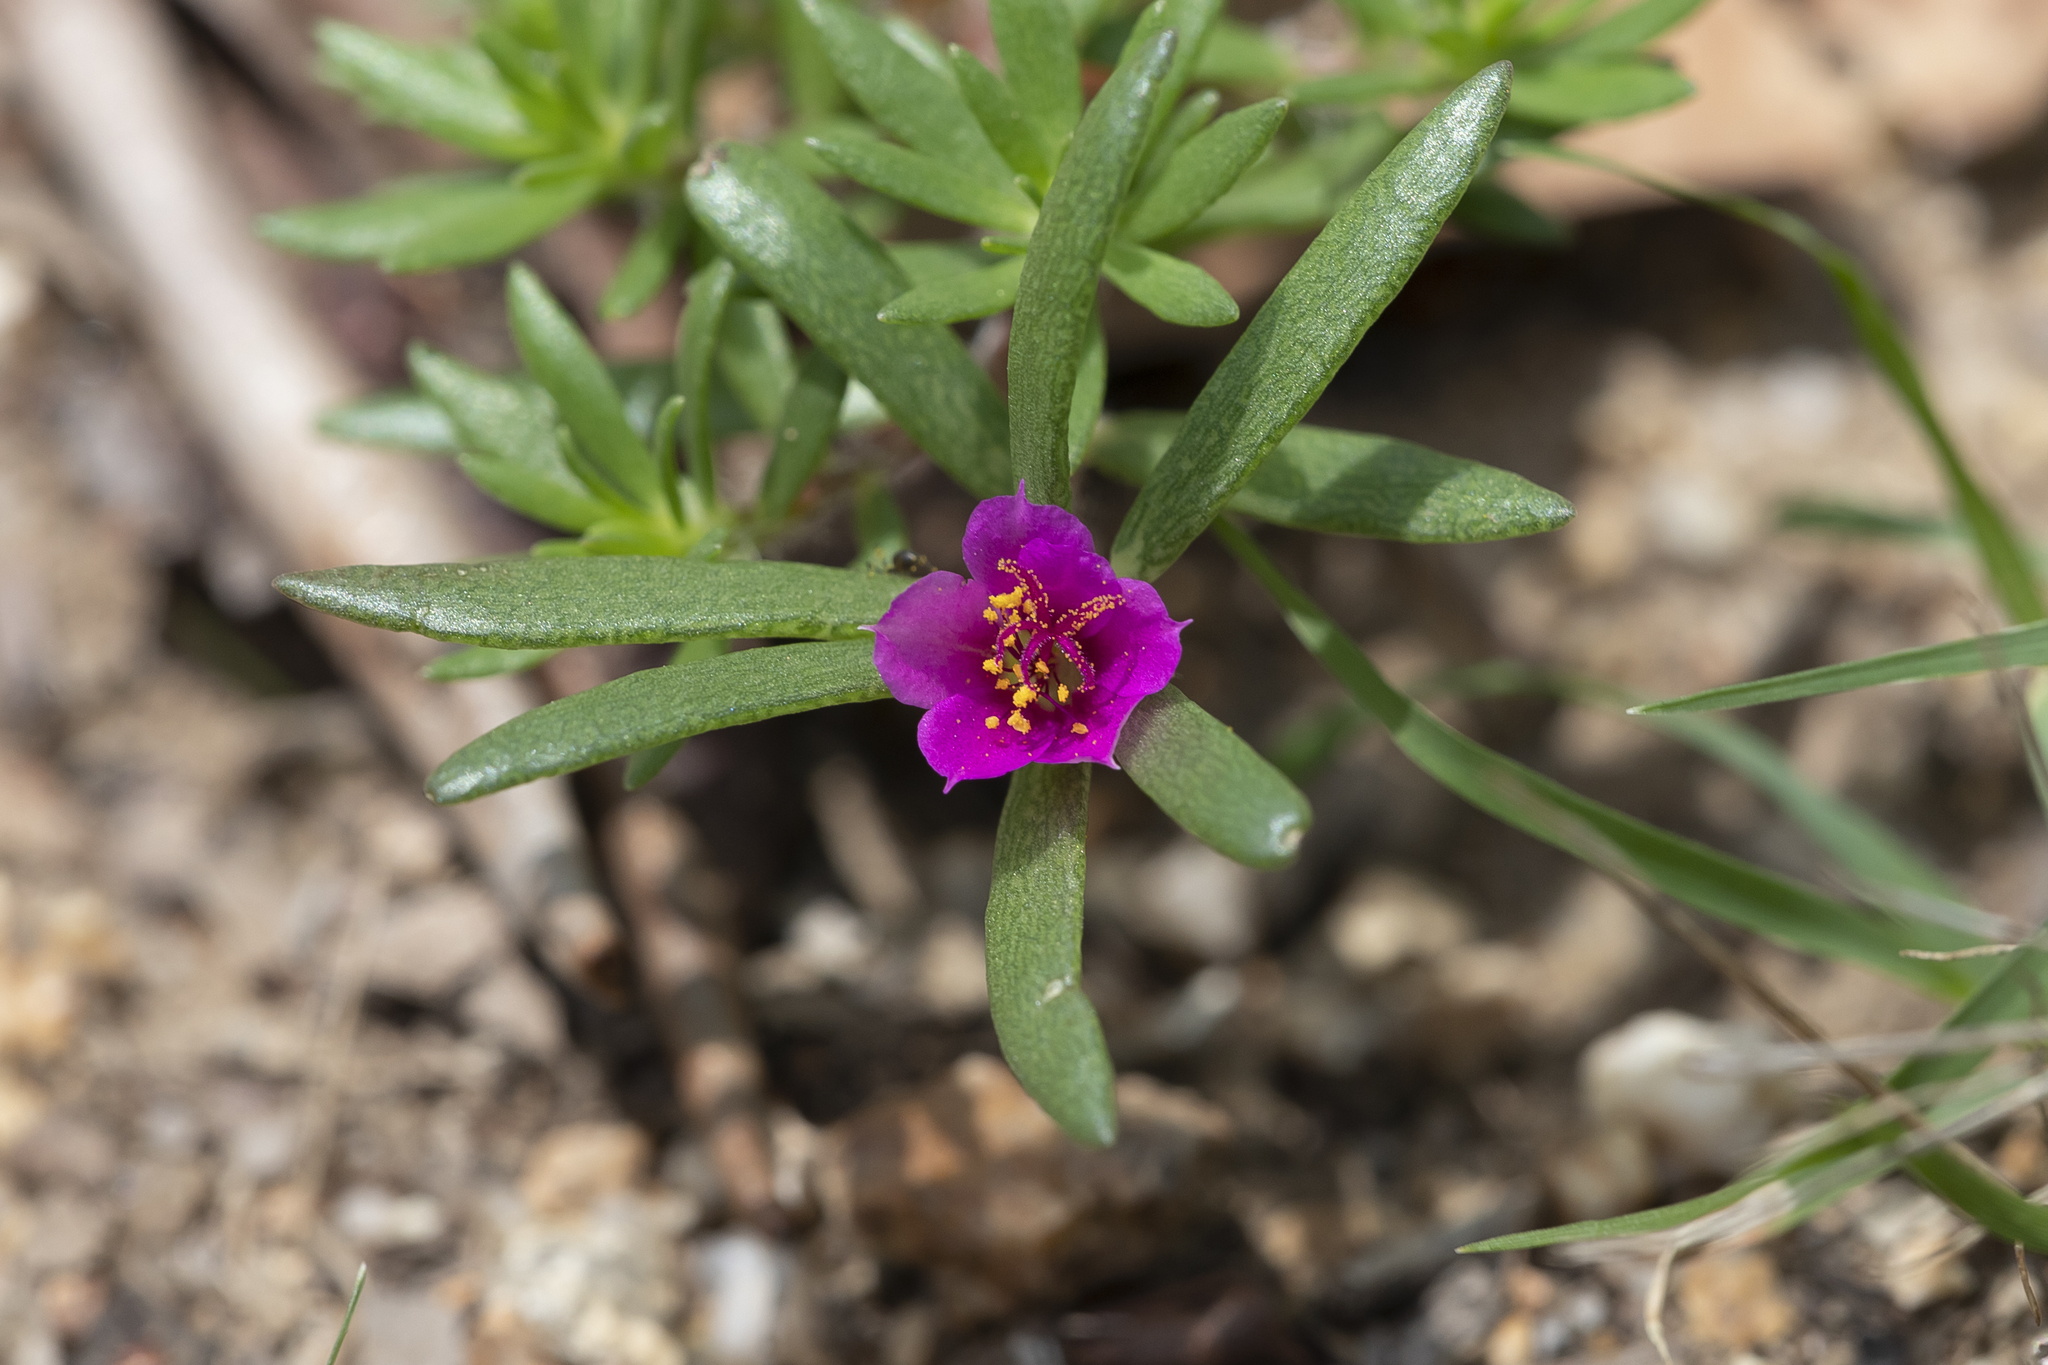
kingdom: Plantae
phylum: Tracheophyta
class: Magnoliopsida
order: Caryophyllales
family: Portulacaceae
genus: Portulaca
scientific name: Portulaca pilosa
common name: Kiss me quick
